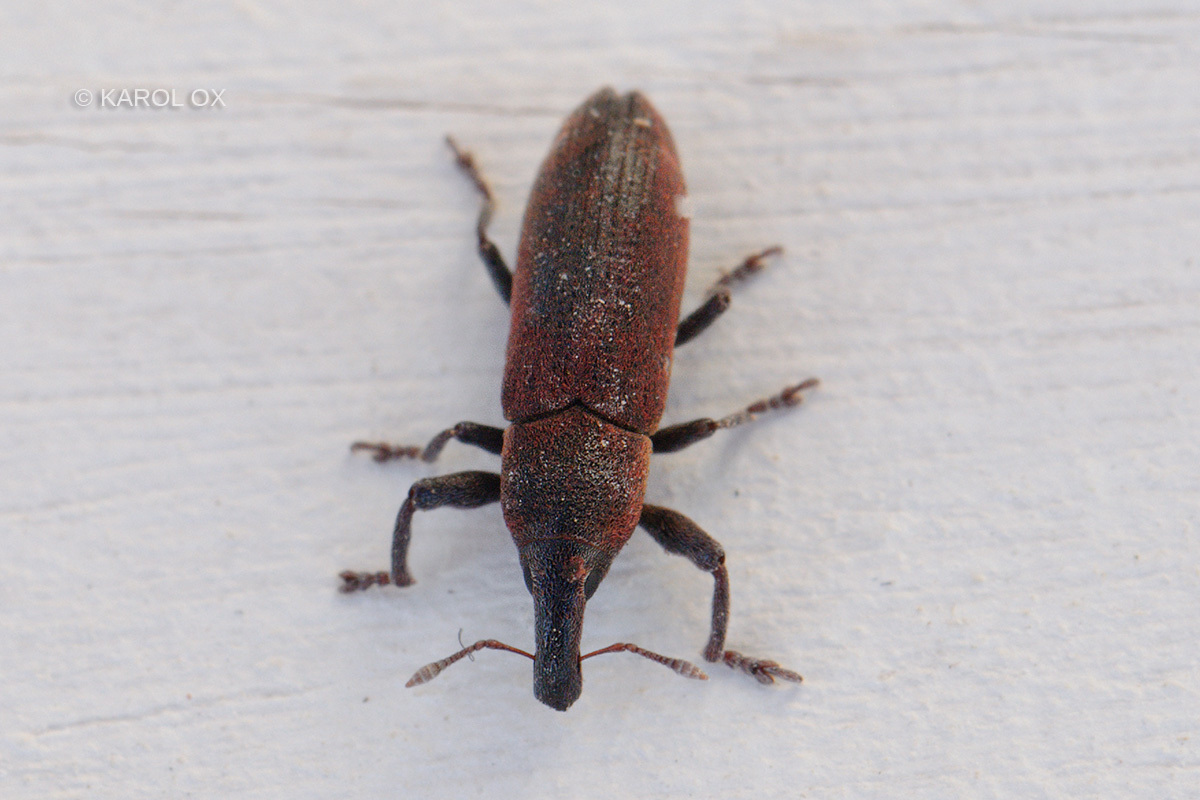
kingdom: Animalia
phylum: Arthropoda
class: Insecta
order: Coleoptera
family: Curculionidae
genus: Lixus
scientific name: Lixus tibialis
